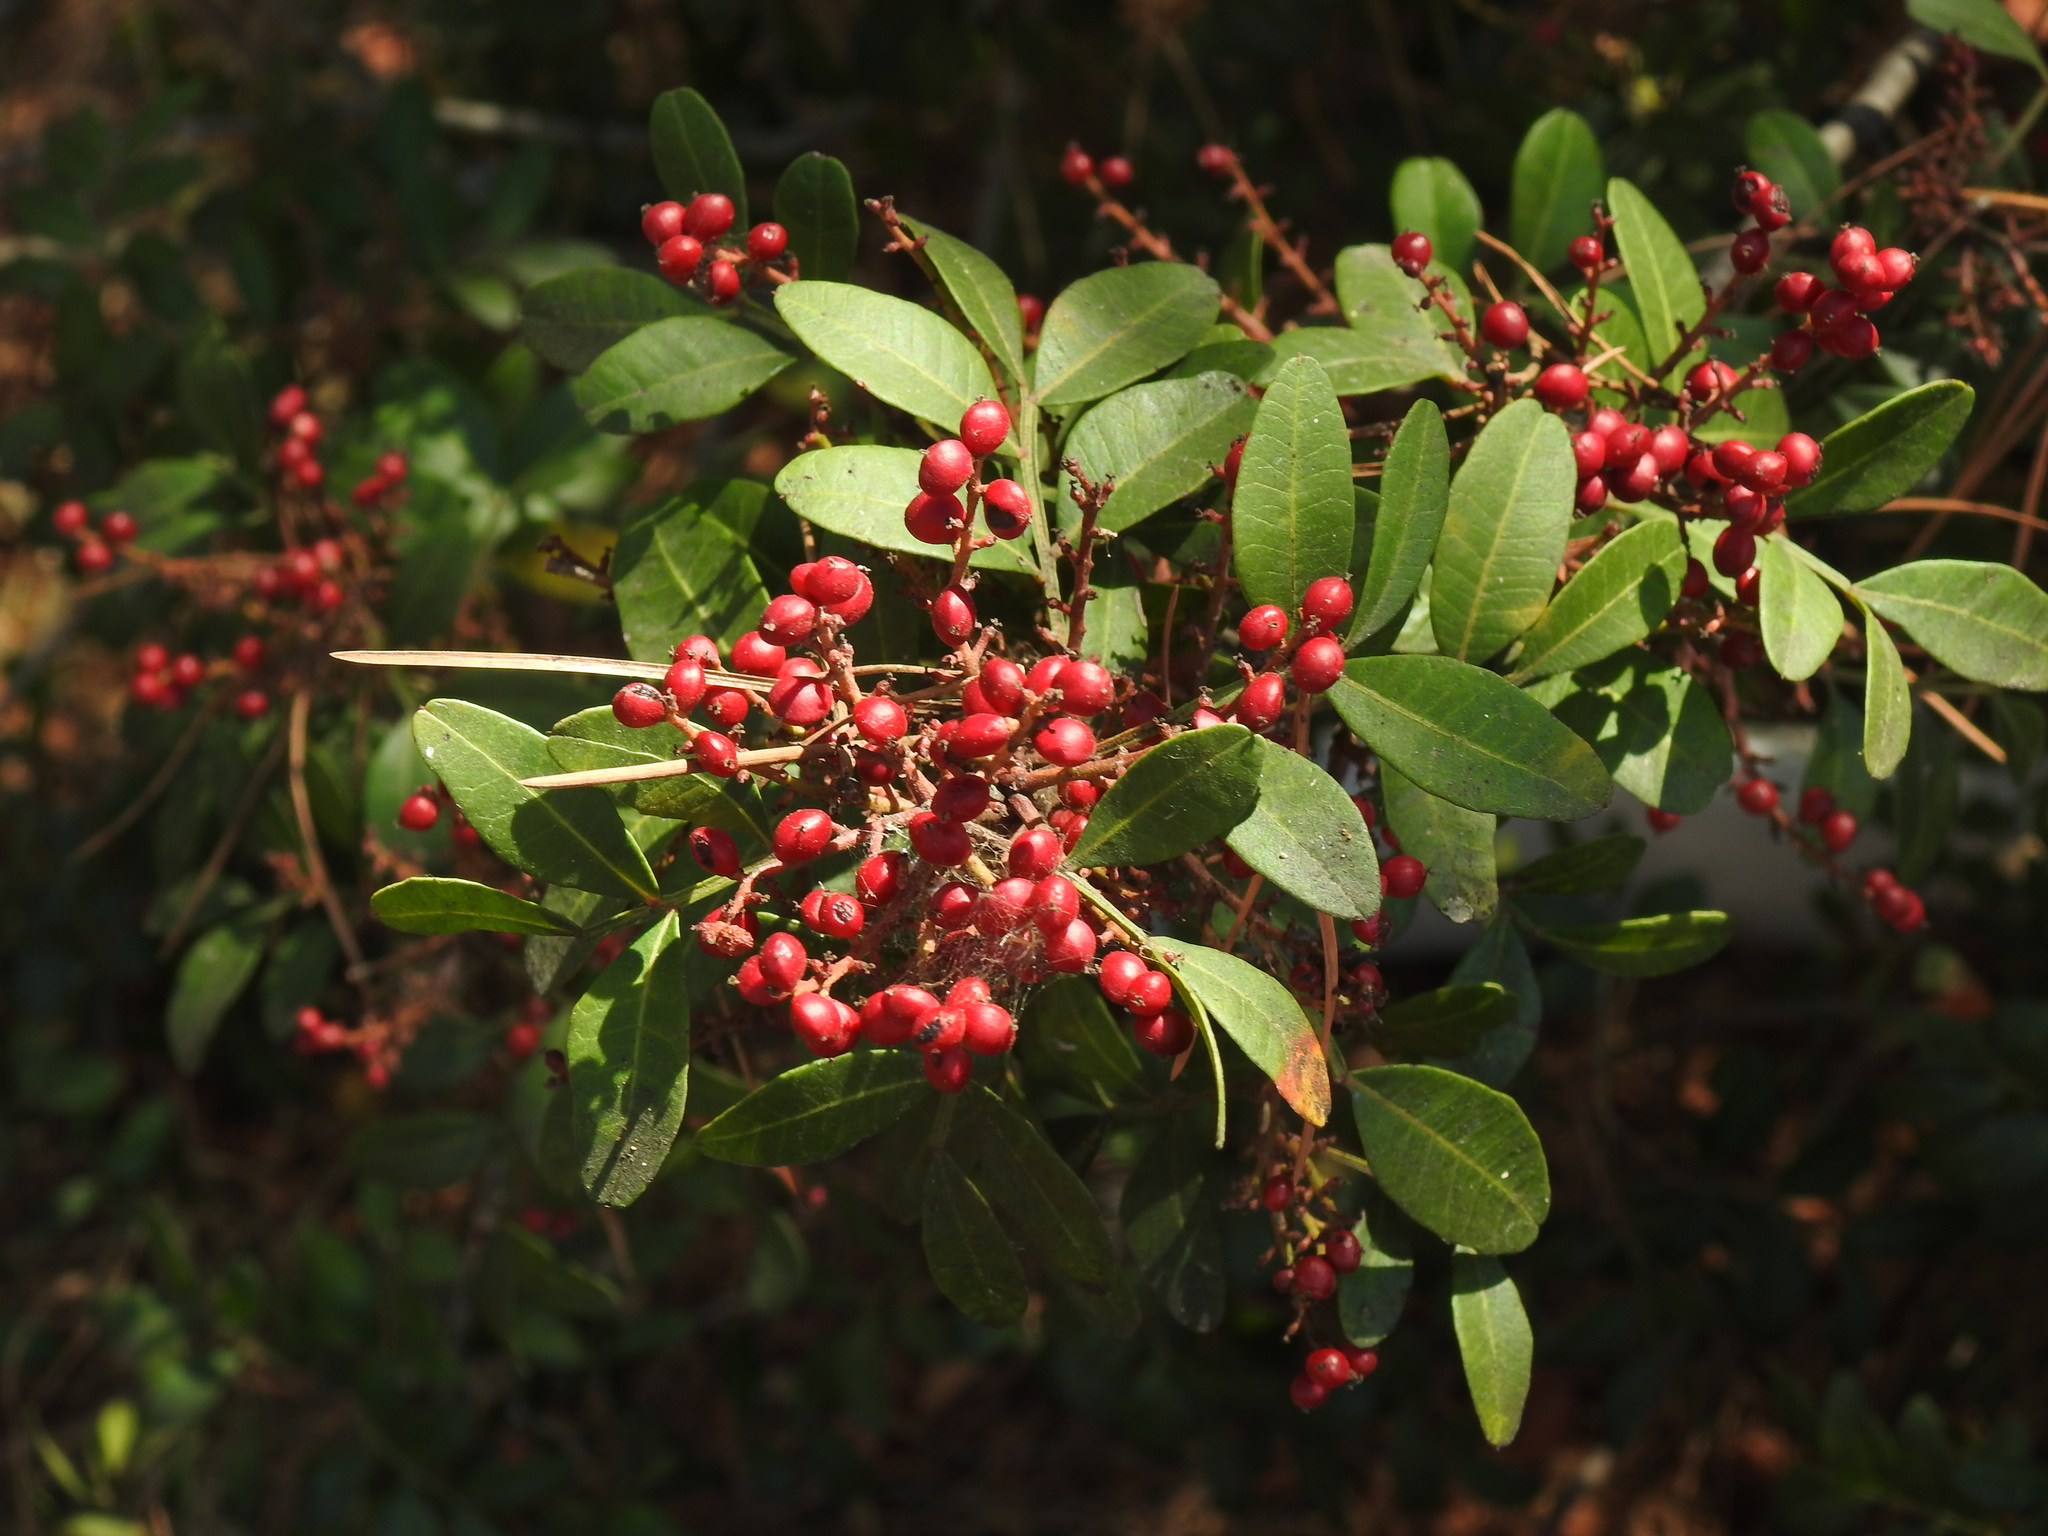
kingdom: Plantae
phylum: Tracheophyta
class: Magnoliopsida
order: Sapindales
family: Anacardiaceae
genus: Pistacia
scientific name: Pistacia lentiscus
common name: Lentisk
